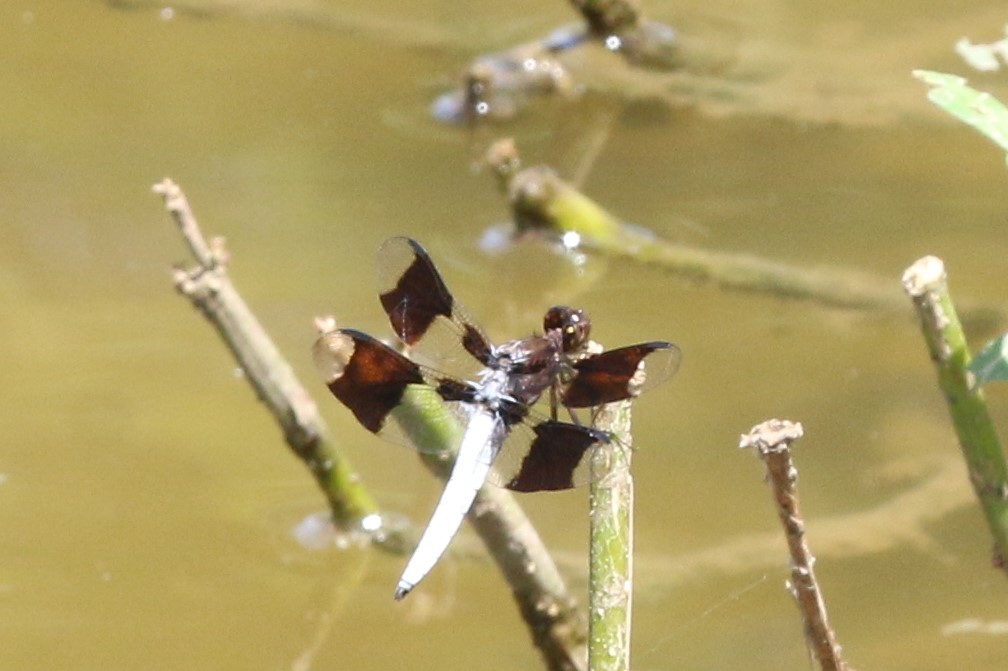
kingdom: Animalia
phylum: Arthropoda
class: Insecta
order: Odonata
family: Libellulidae
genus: Plathemis
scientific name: Plathemis lydia
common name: Common whitetail
